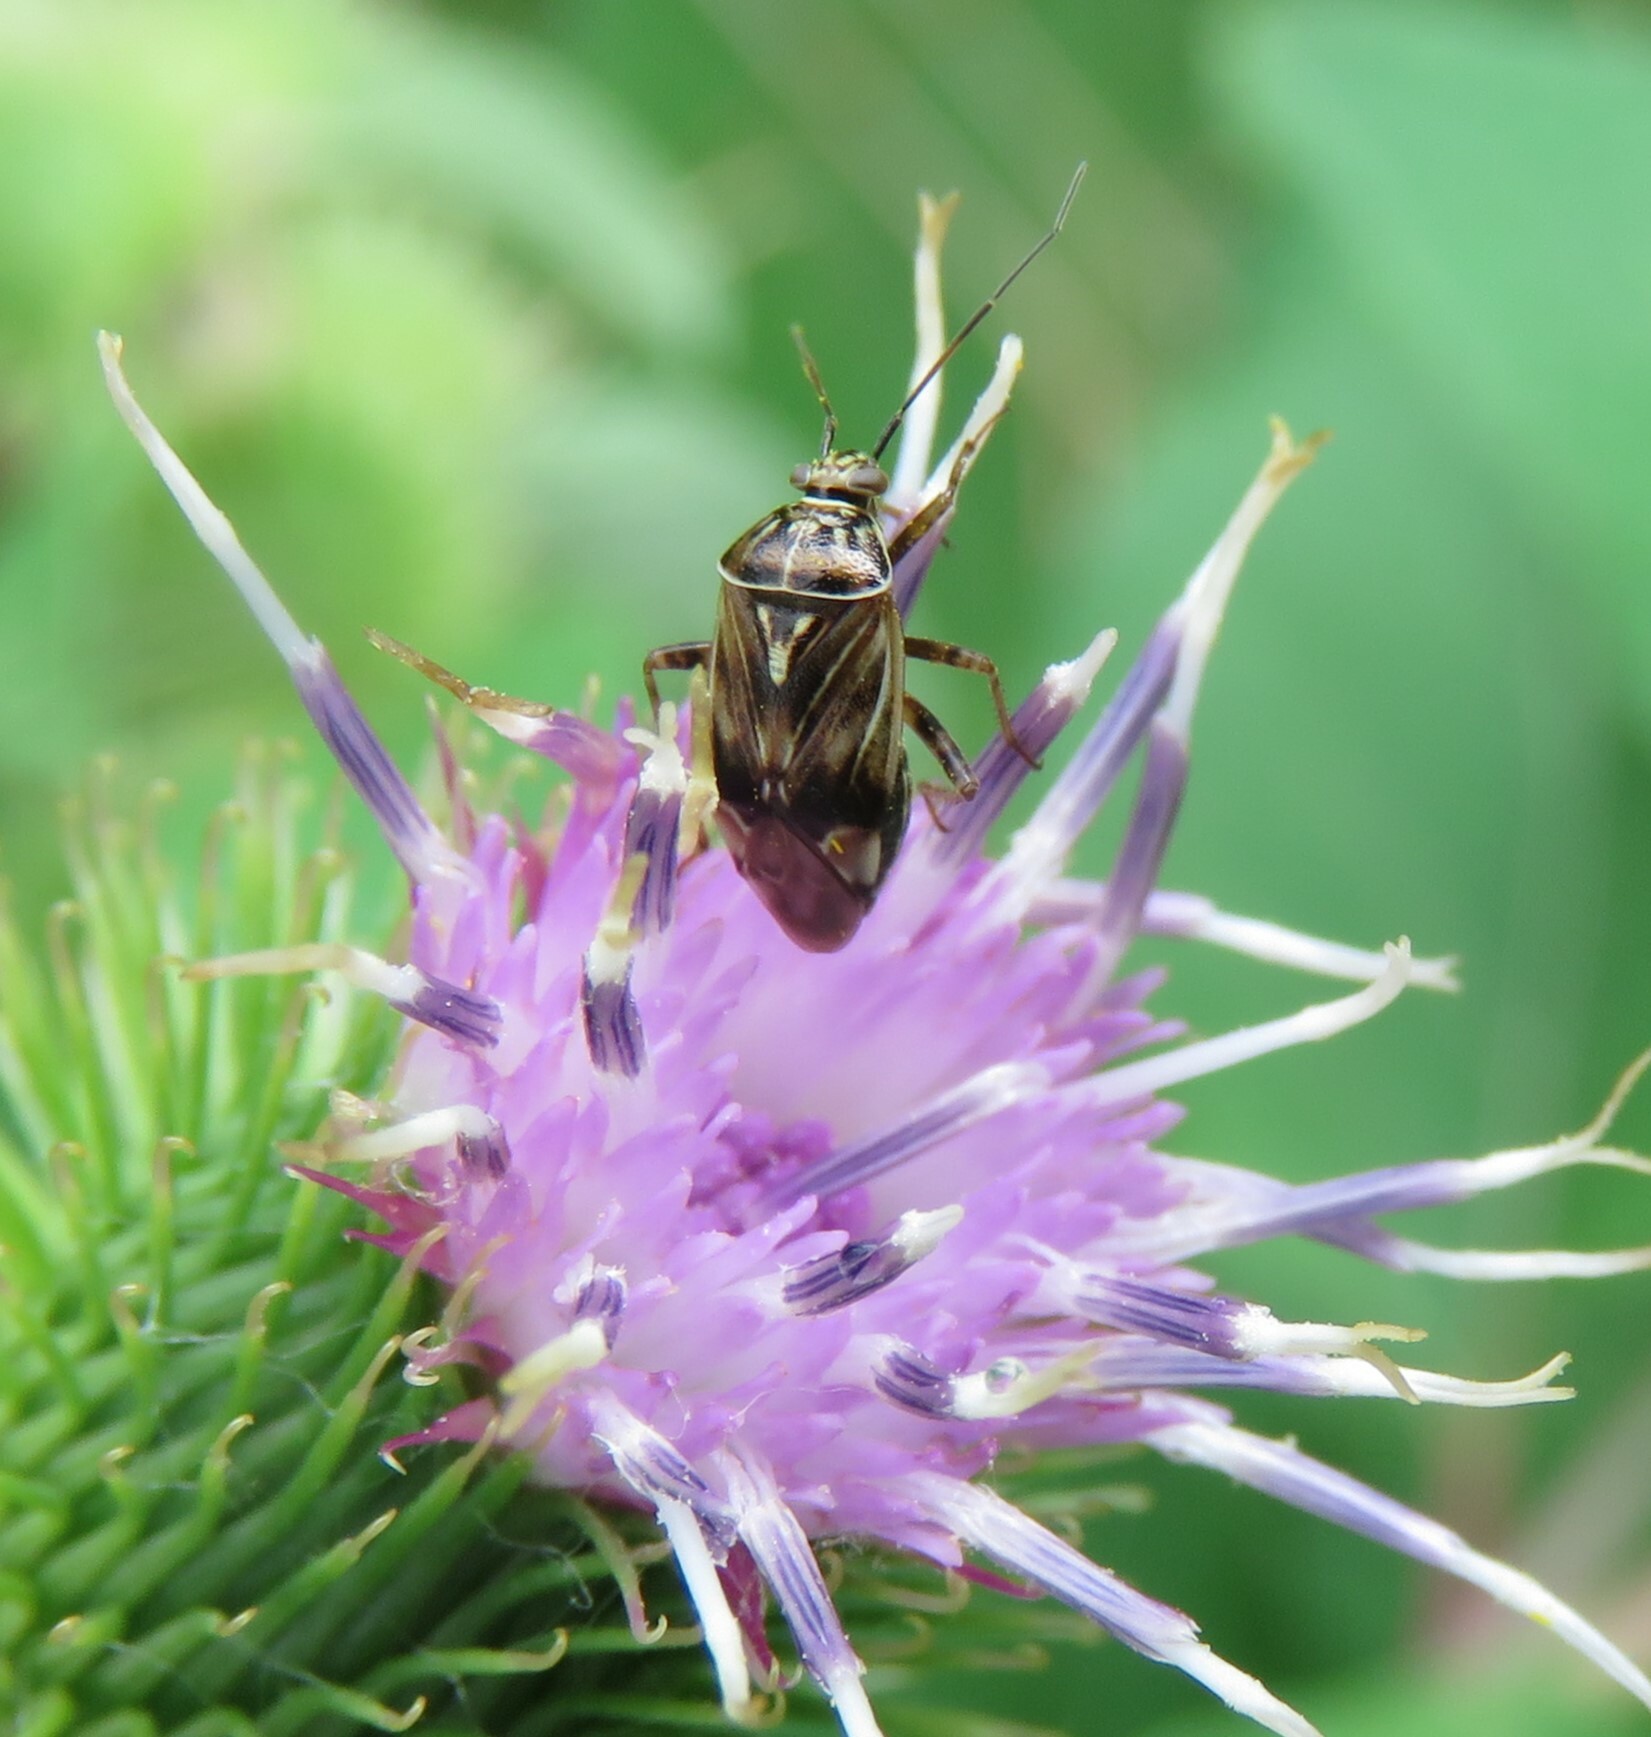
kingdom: Animalia
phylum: Arthropoda
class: Insecta
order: Hemiptera
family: Miridae
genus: Lygus
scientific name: Lygus lineolaris
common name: North american tarnished plant bug
